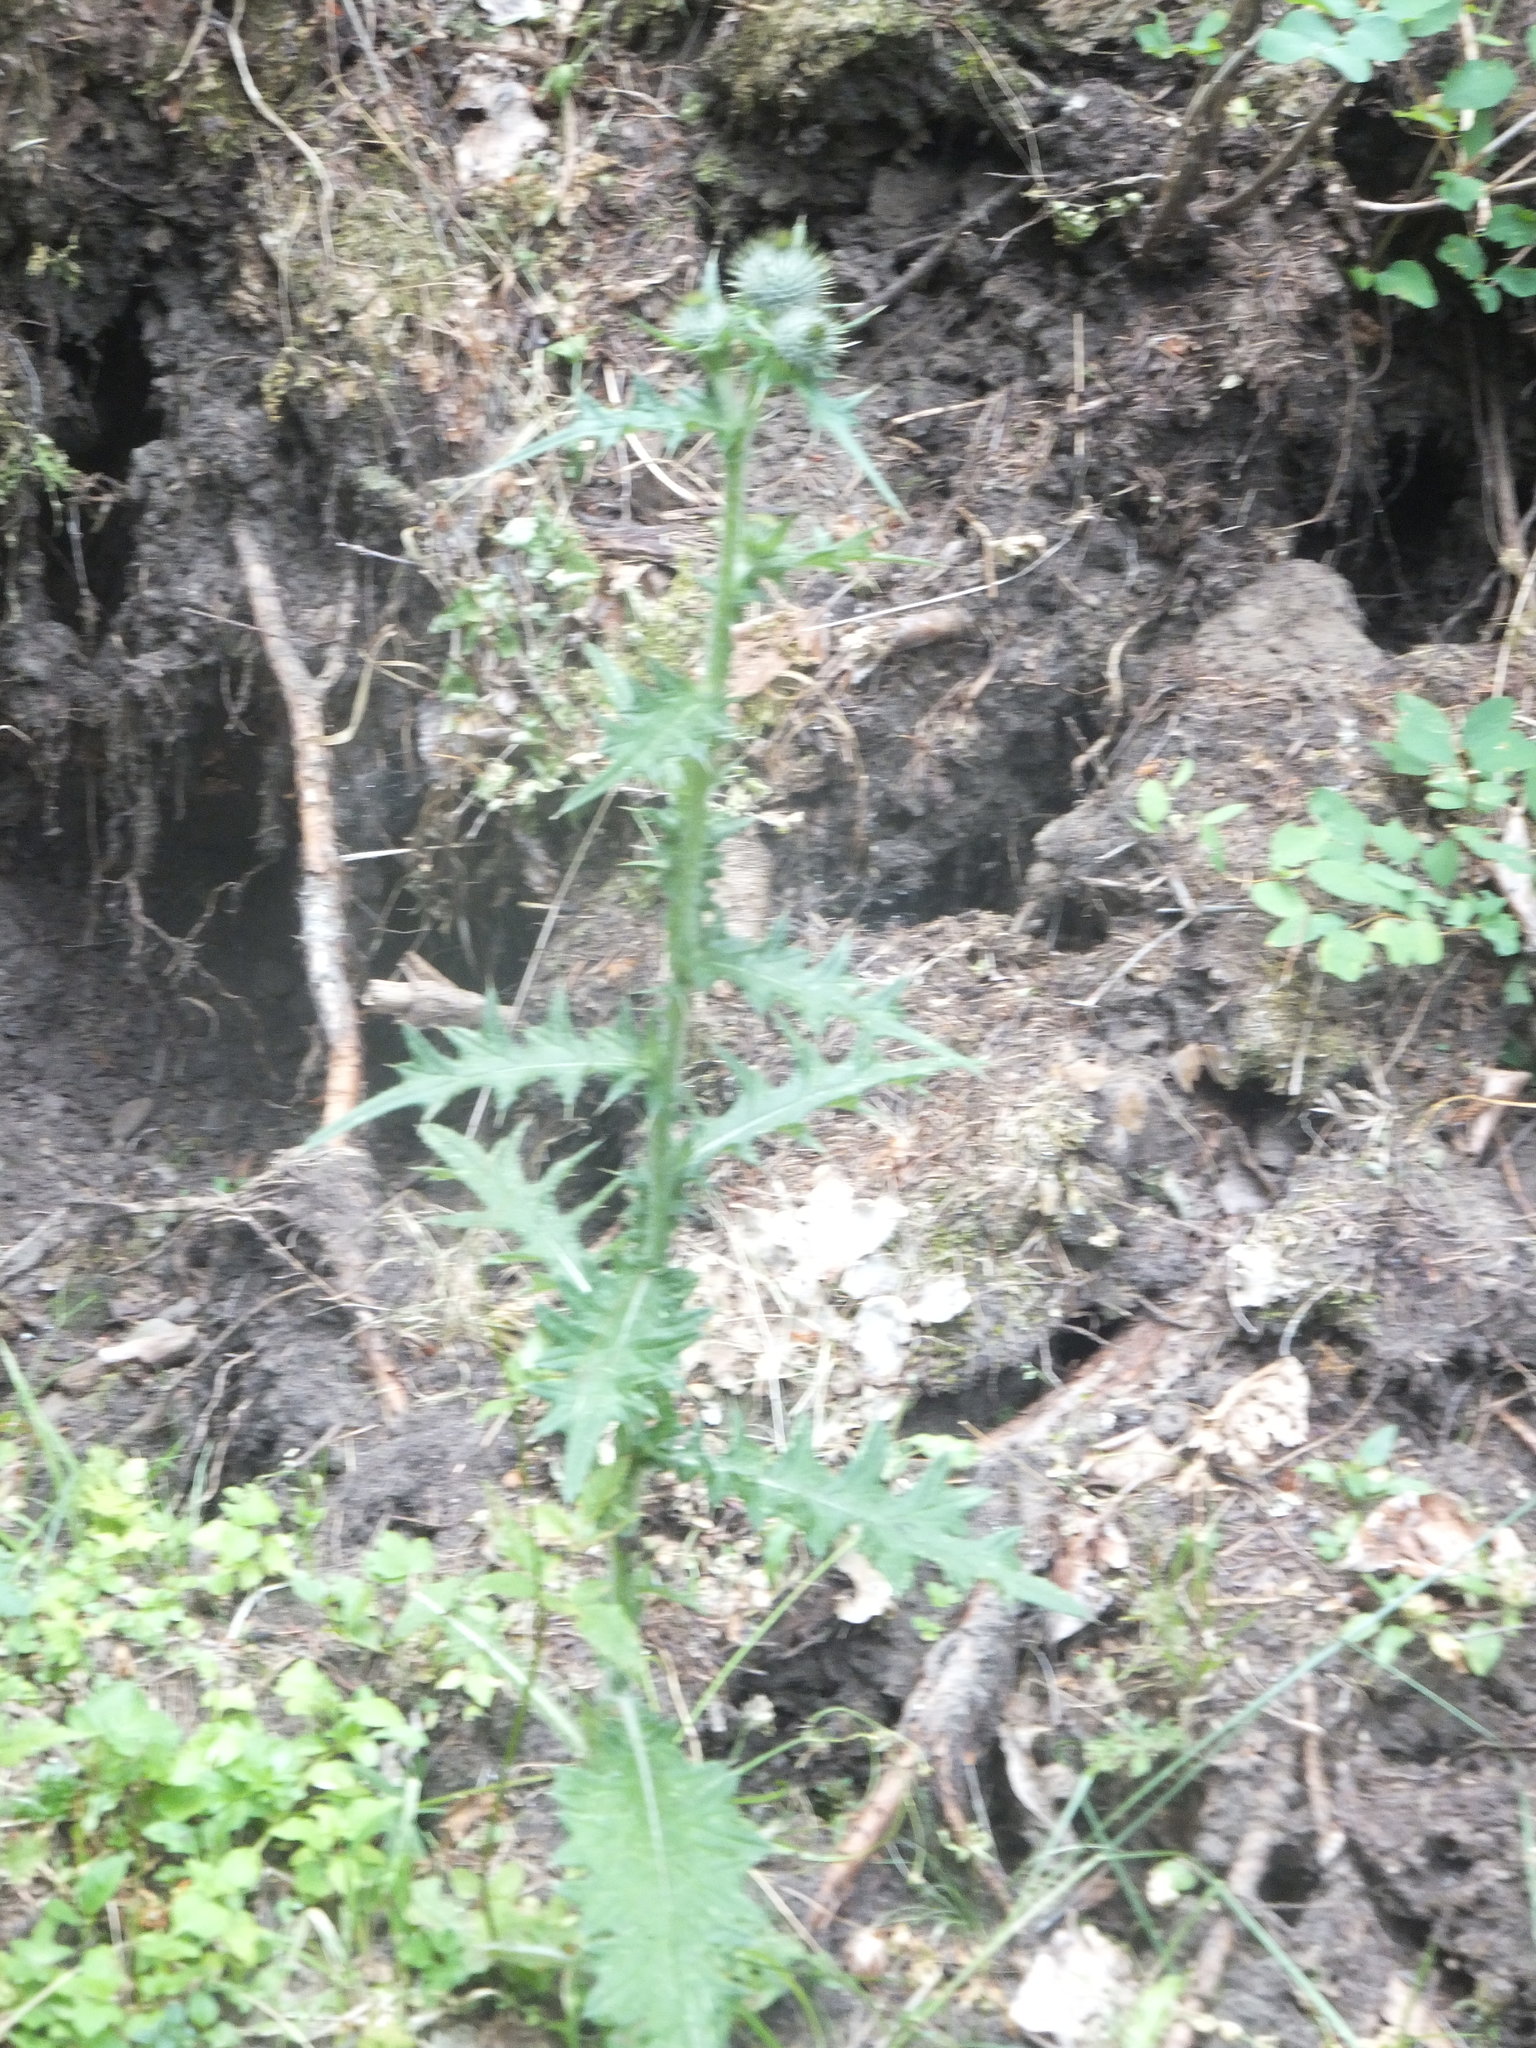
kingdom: Plantae
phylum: Tracheophyta
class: Magnoliopsida
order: Asterales
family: Asteraceae
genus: Cirsium
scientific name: Cirsium vulgare
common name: Bull thistle
